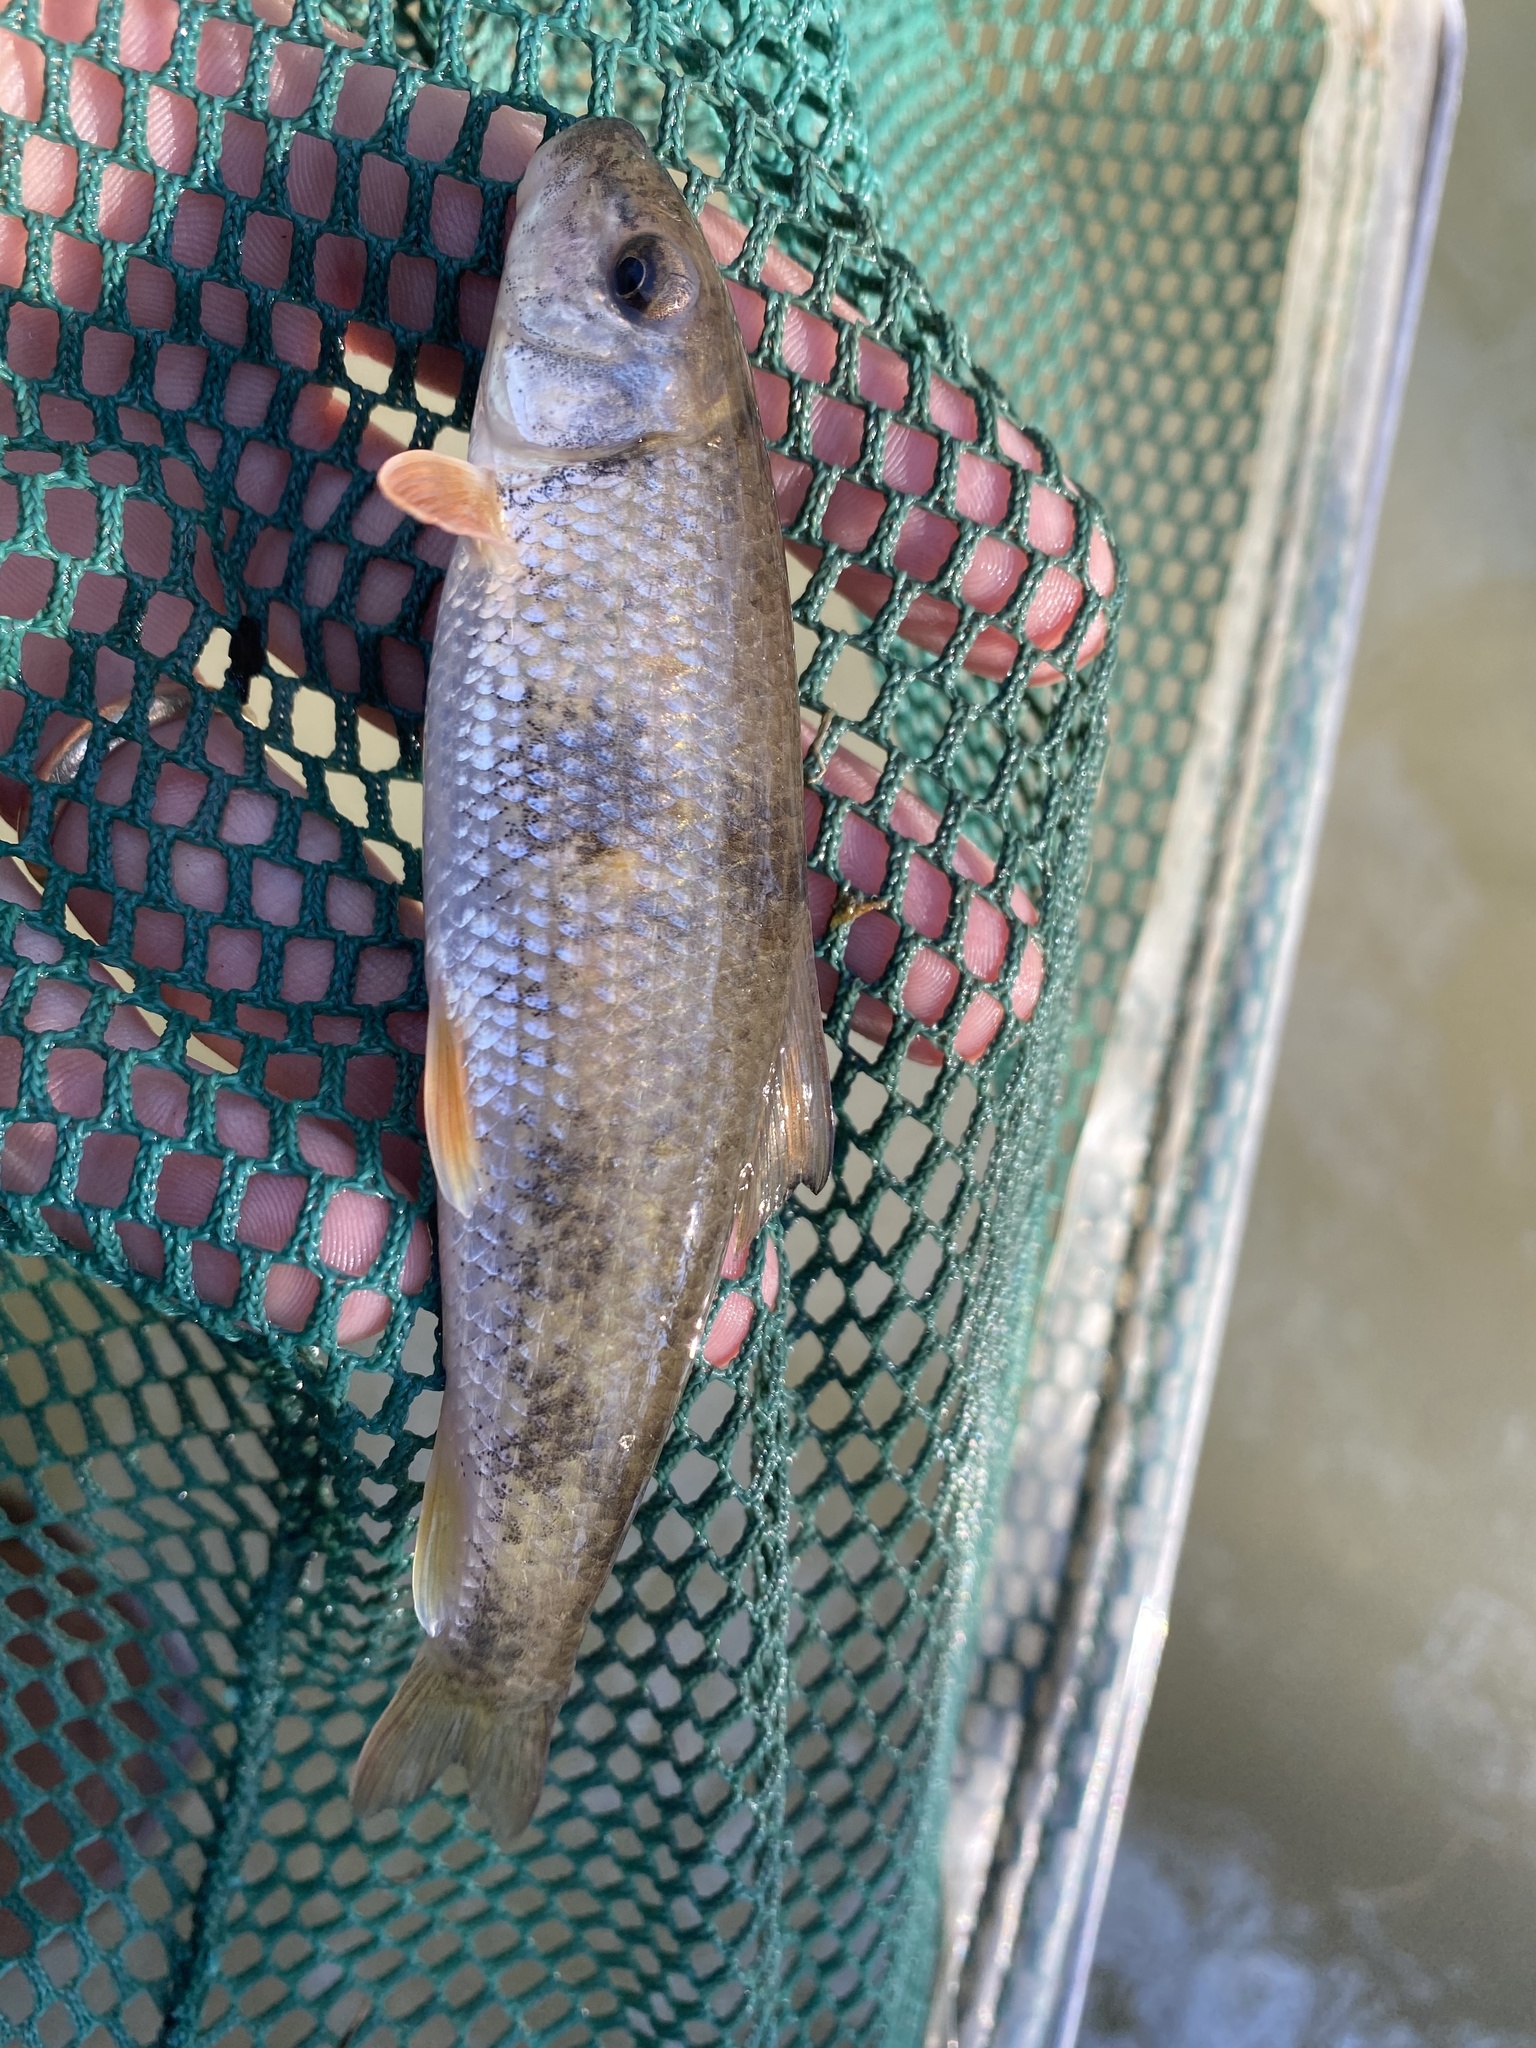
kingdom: Animalia
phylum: Chordata
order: Cypriniformes
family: Catostomidae
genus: Hypentelium
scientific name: Hypentelium etowanum
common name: Alabama hog sucker
